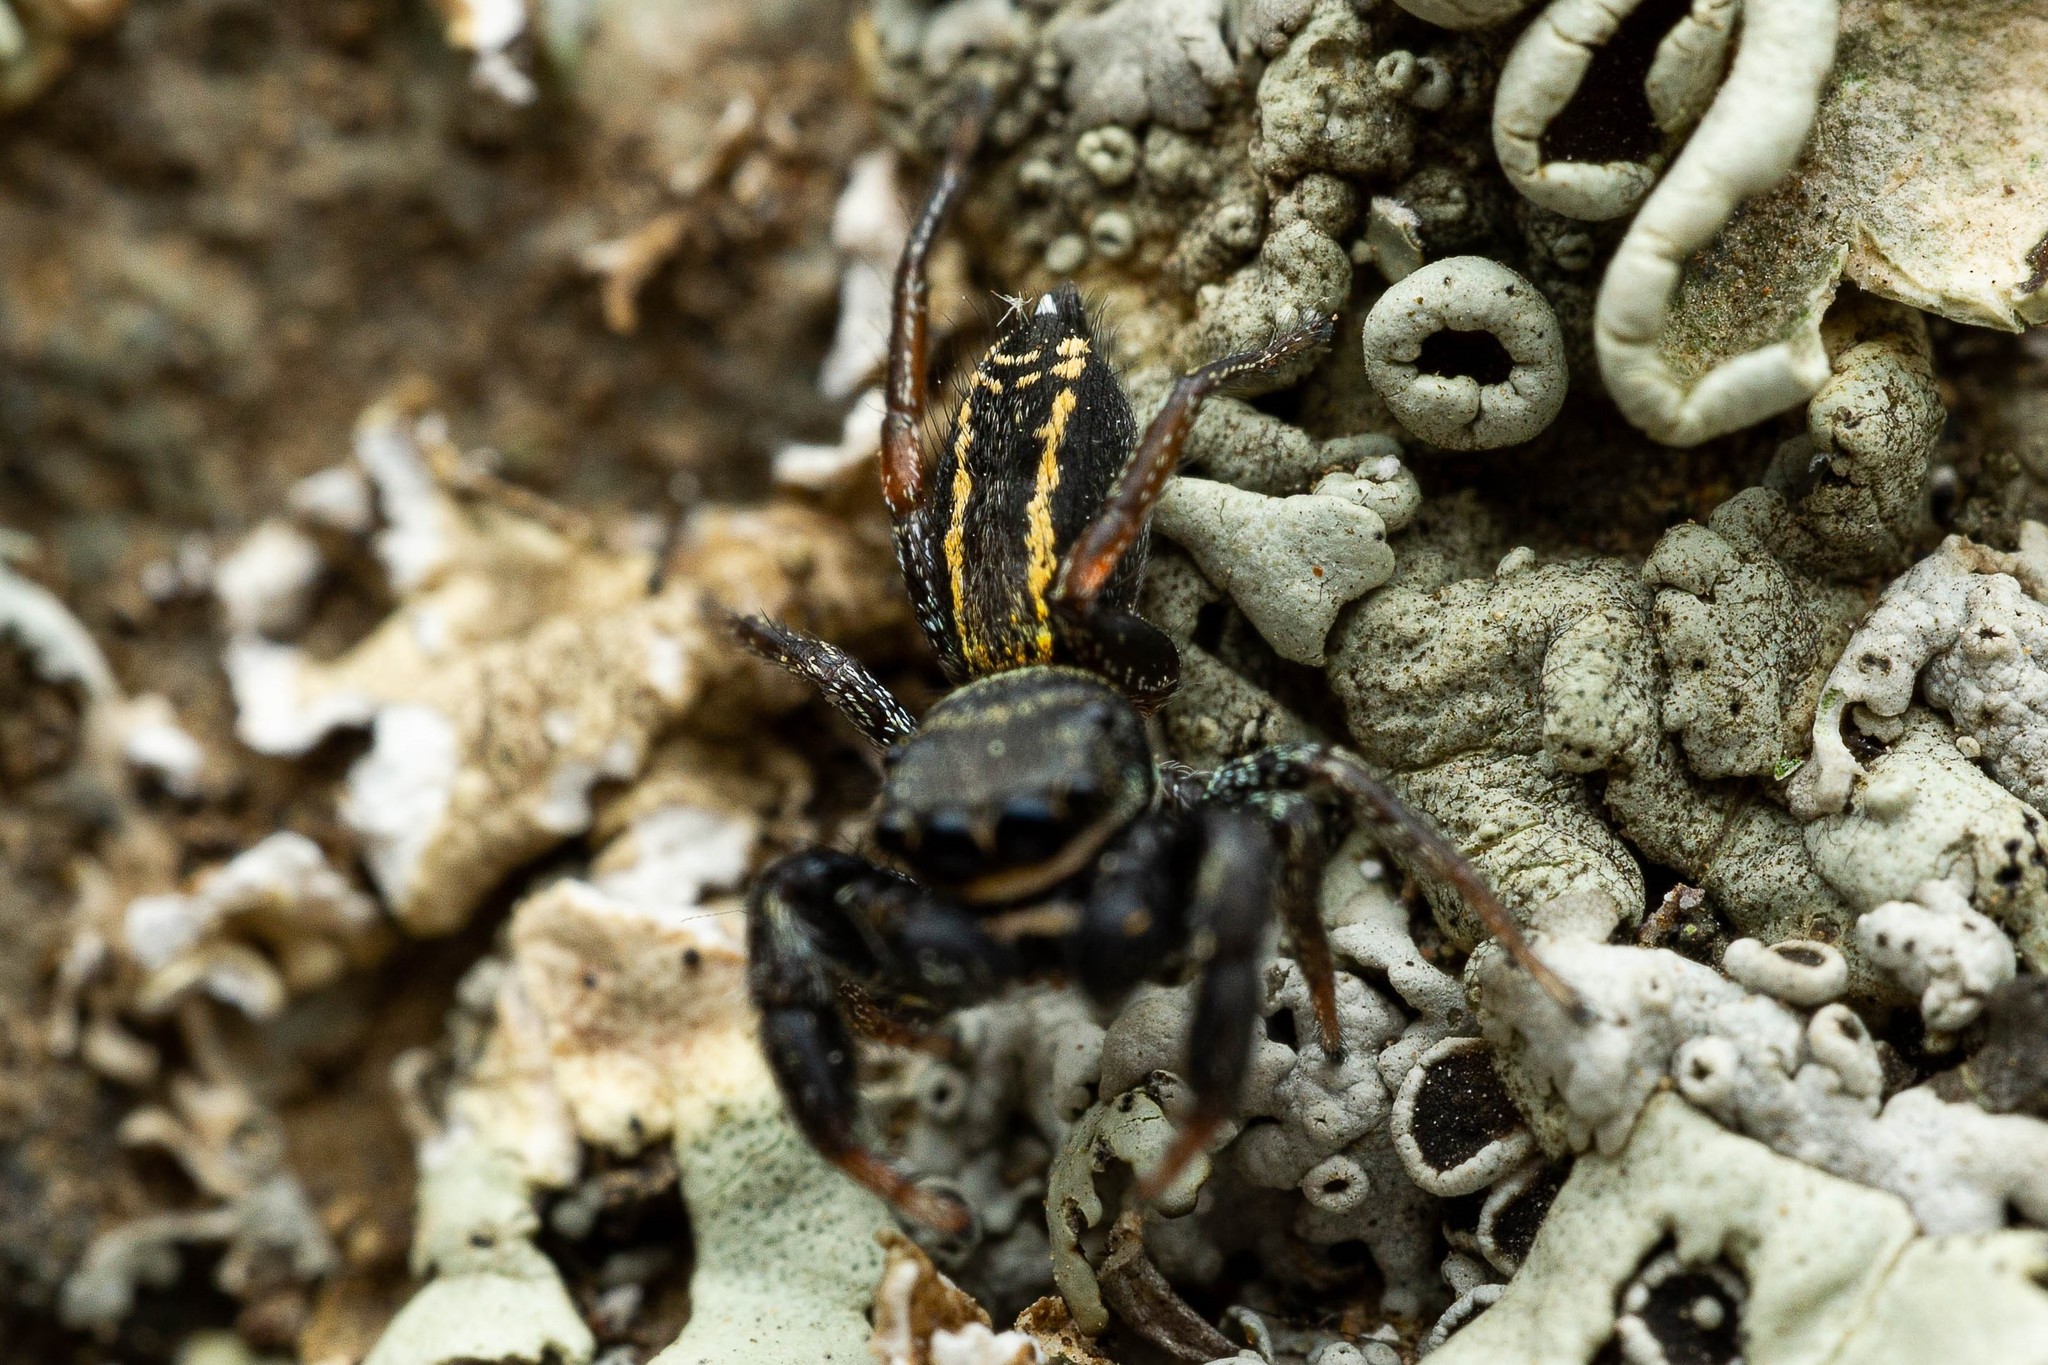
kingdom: Animalia
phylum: Arthropoda
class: Arachnida
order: Araneae
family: Salticidae
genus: Metacyrba
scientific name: Metacyrba taeniola
